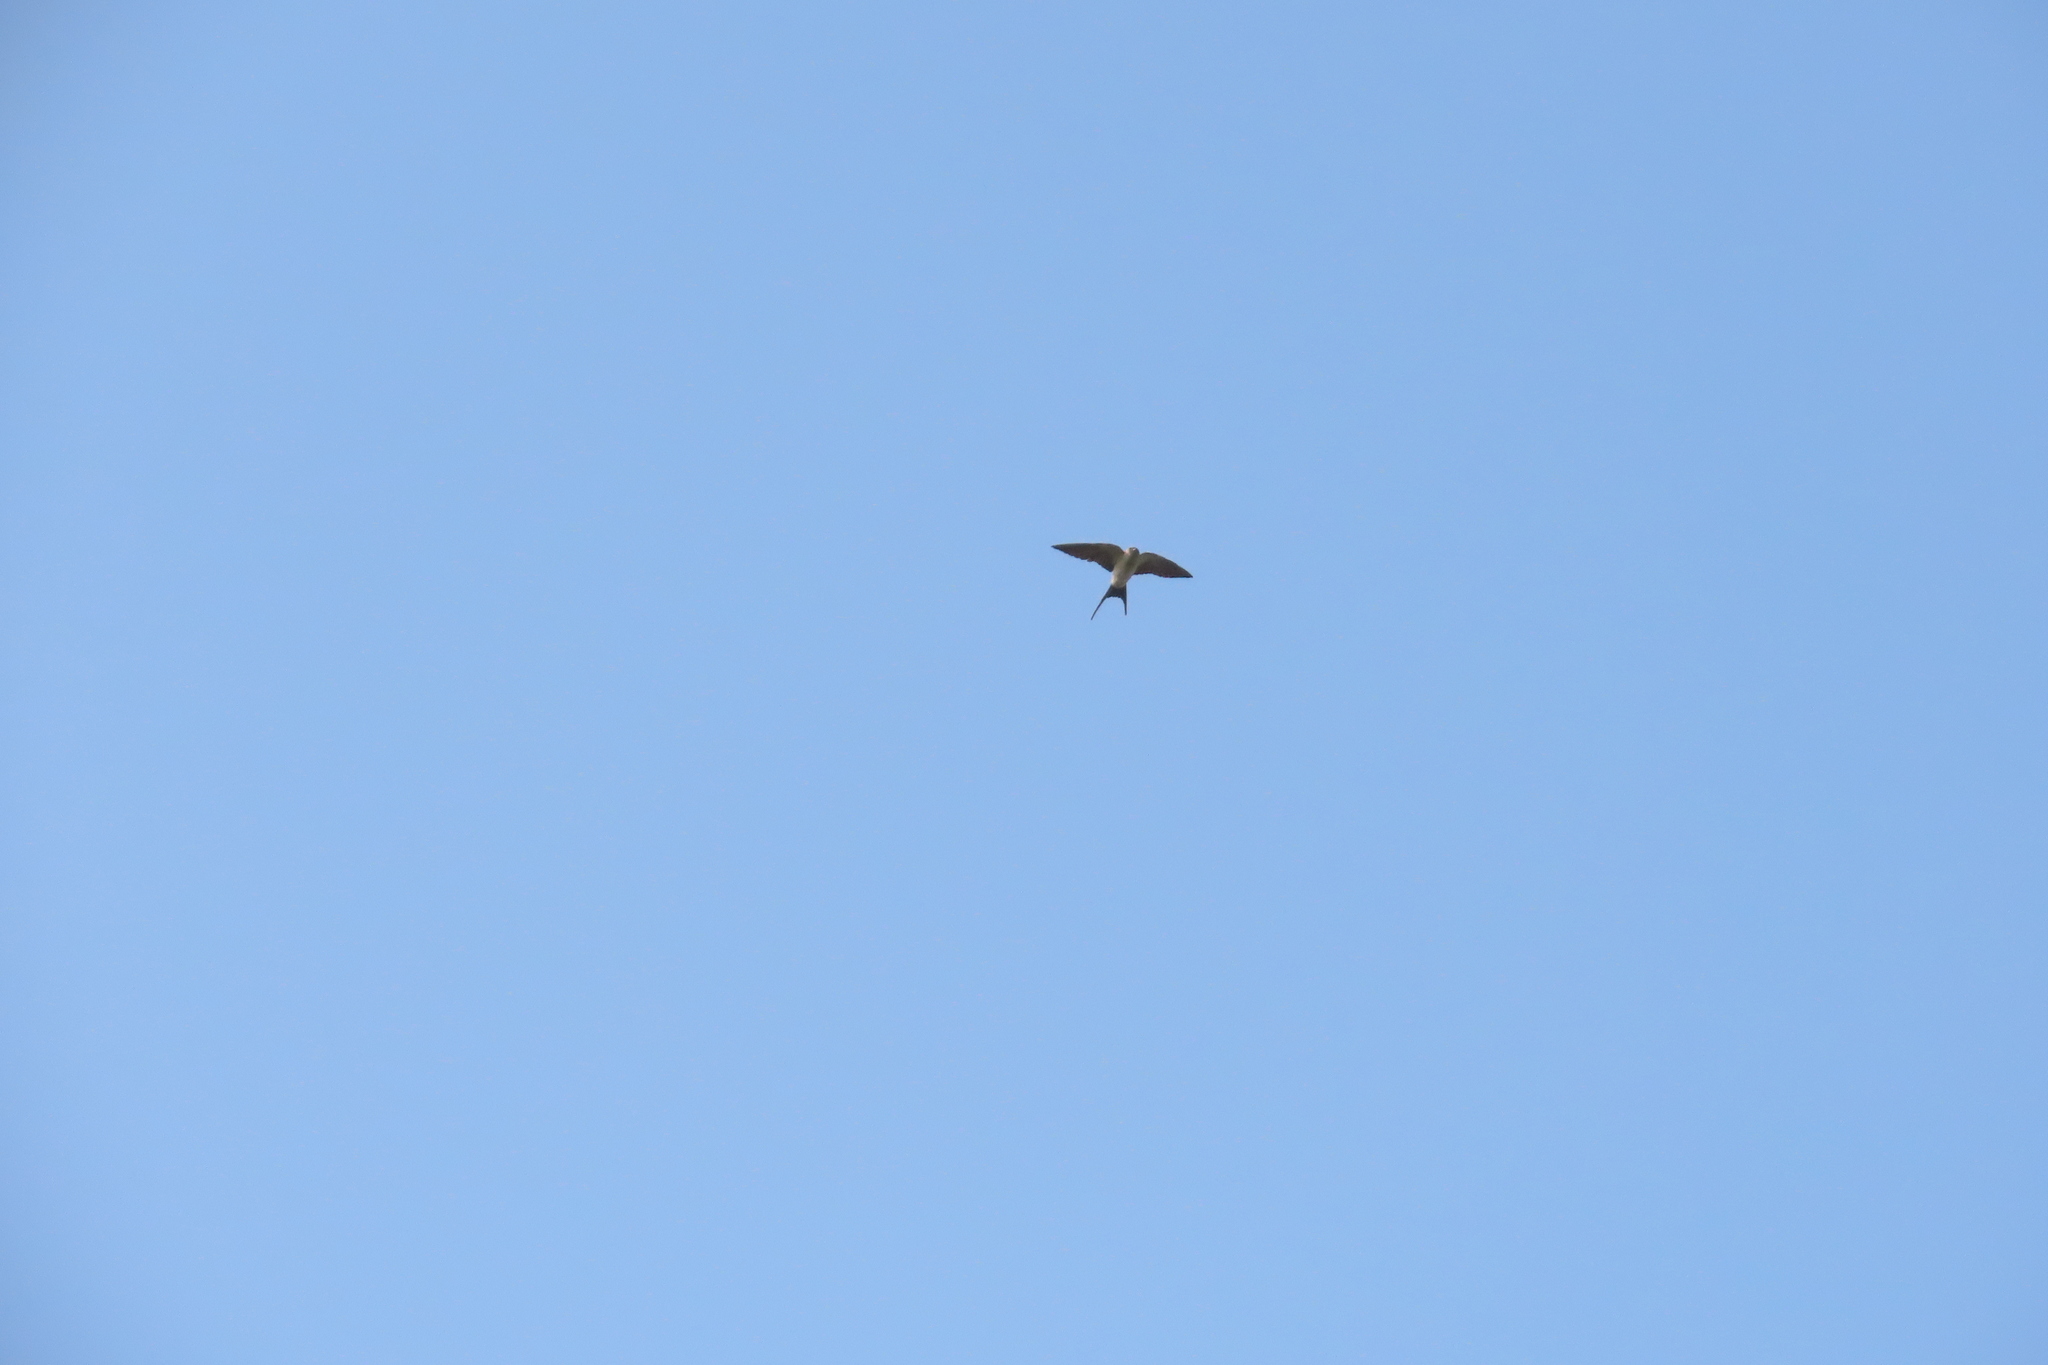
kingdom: Animalia
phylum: Chordata
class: Aves
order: Passeriformes
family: Hirundinidae
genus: Cecropis
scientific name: Cecropis daurica
